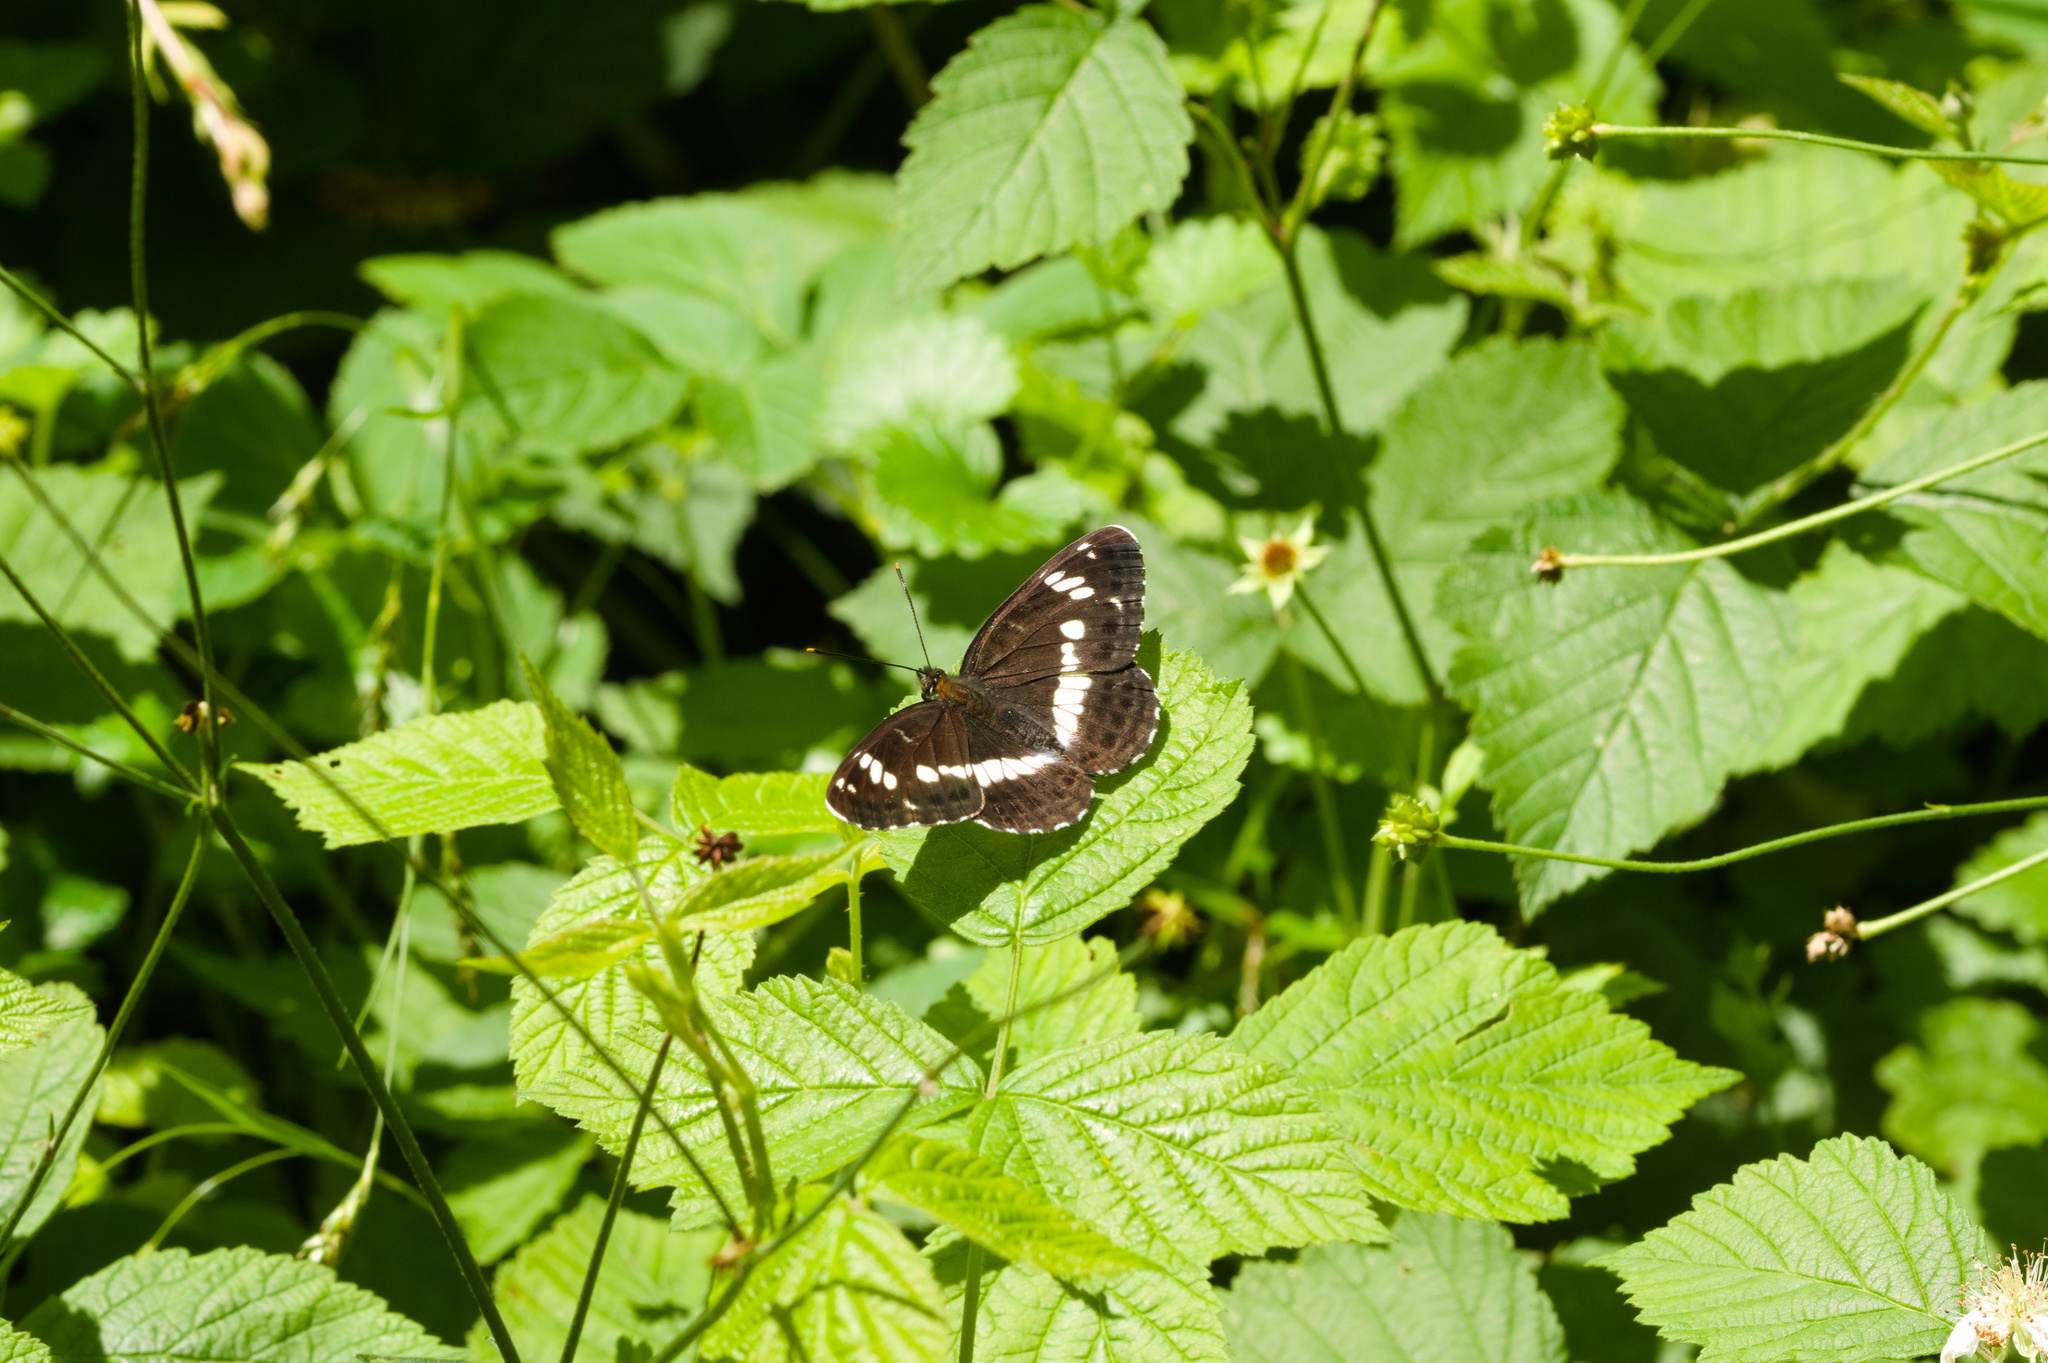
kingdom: Animalia
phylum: Arthropoda
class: Insecta
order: Lepidoptera
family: Nymphalidae
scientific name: Nymphalidae
